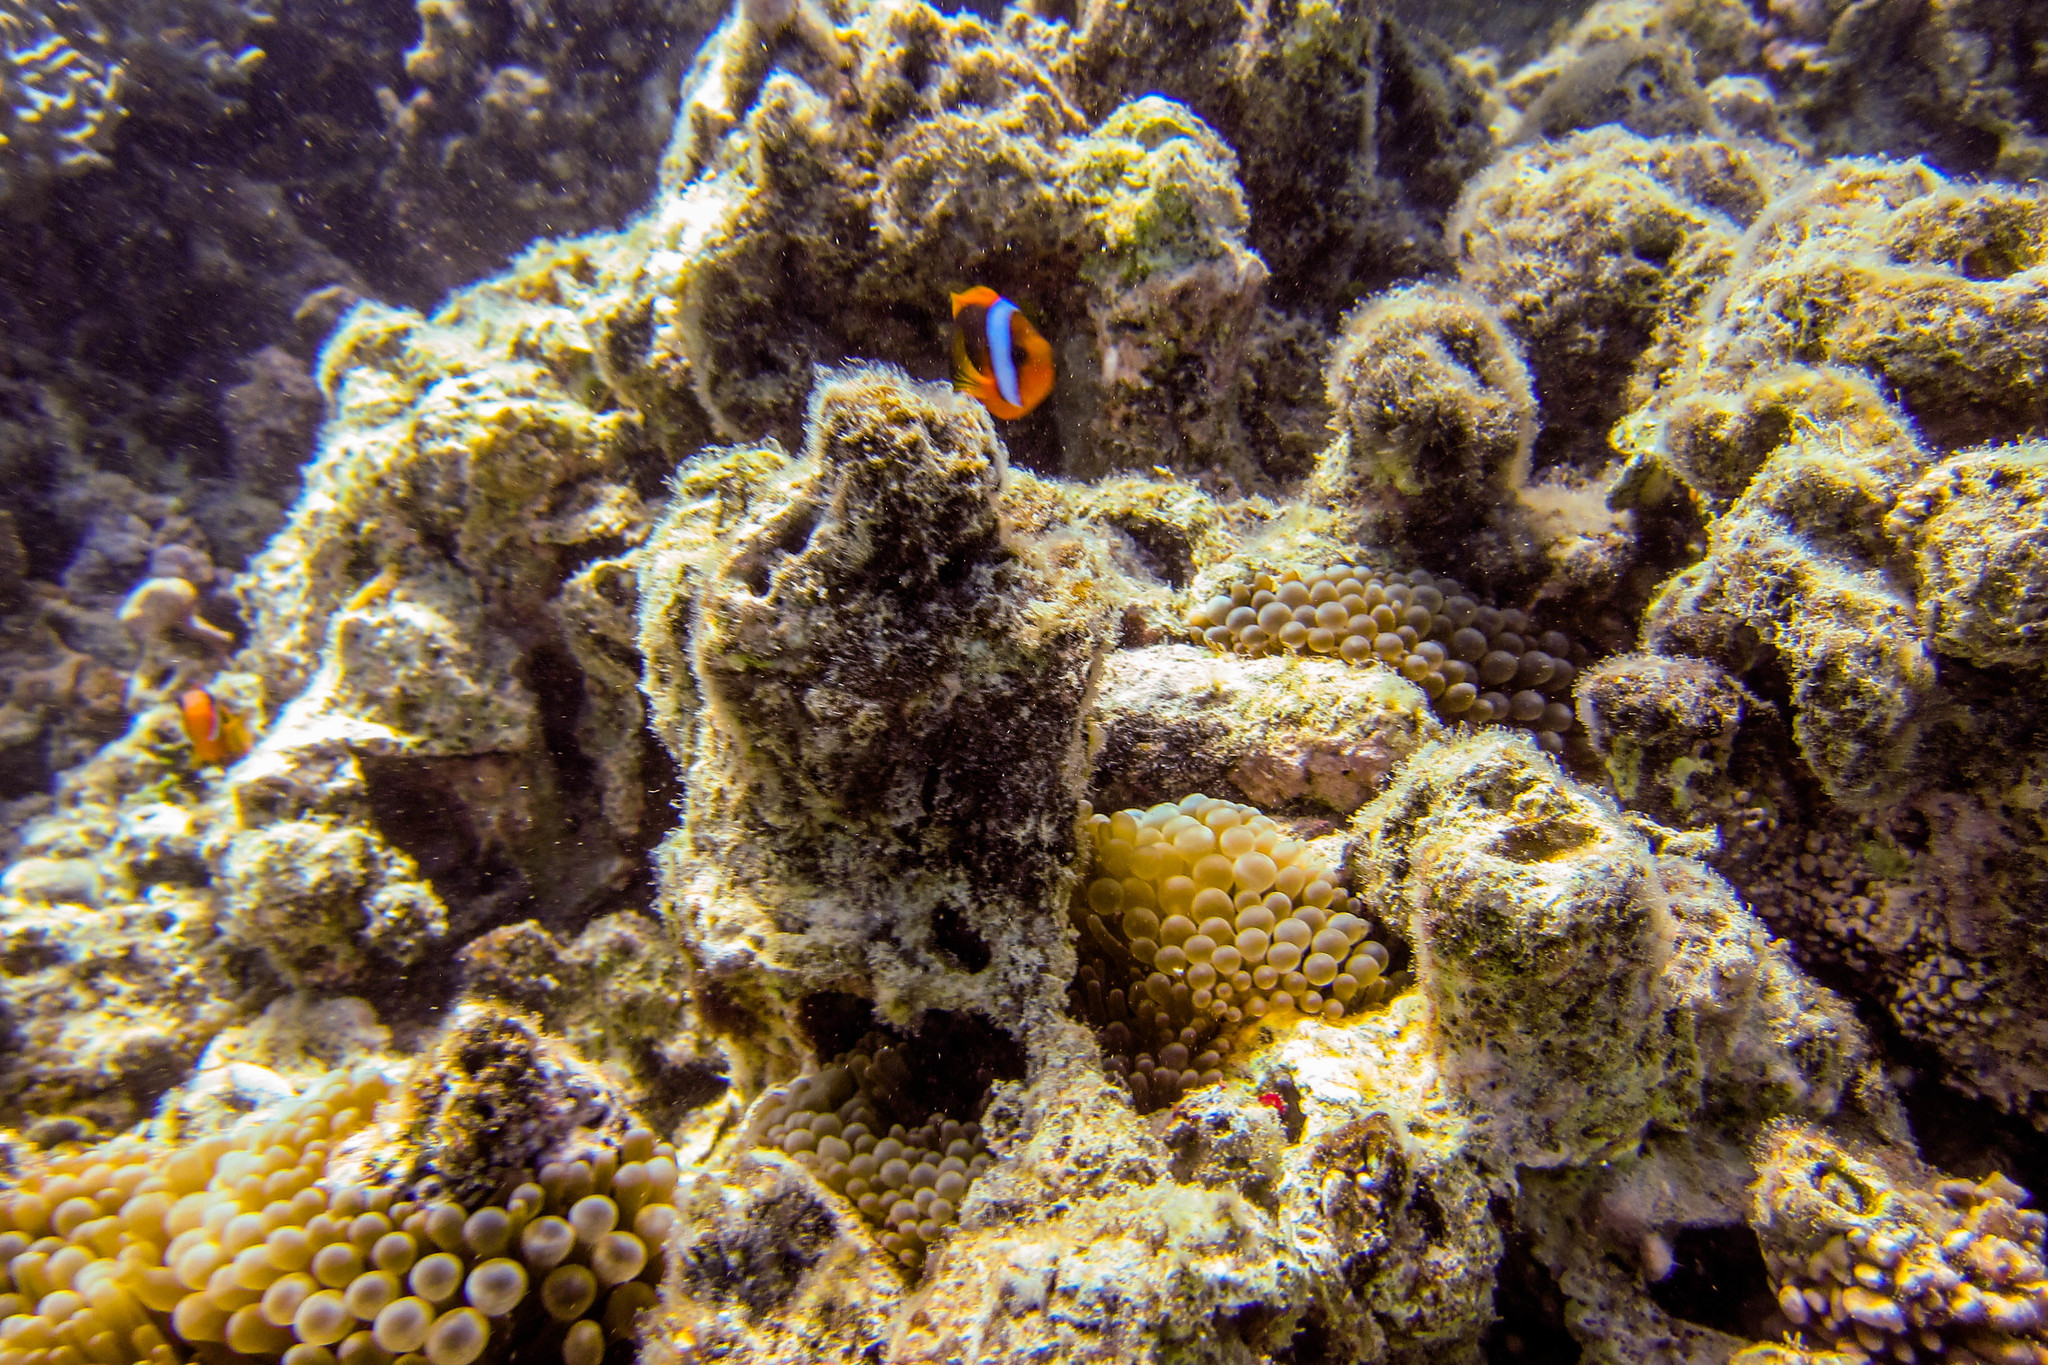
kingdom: Animalia
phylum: Chordata
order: Perciformes
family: Pomacentridae
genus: Amphiprion
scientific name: Amphiprion melanopus
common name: Black anemonefish
